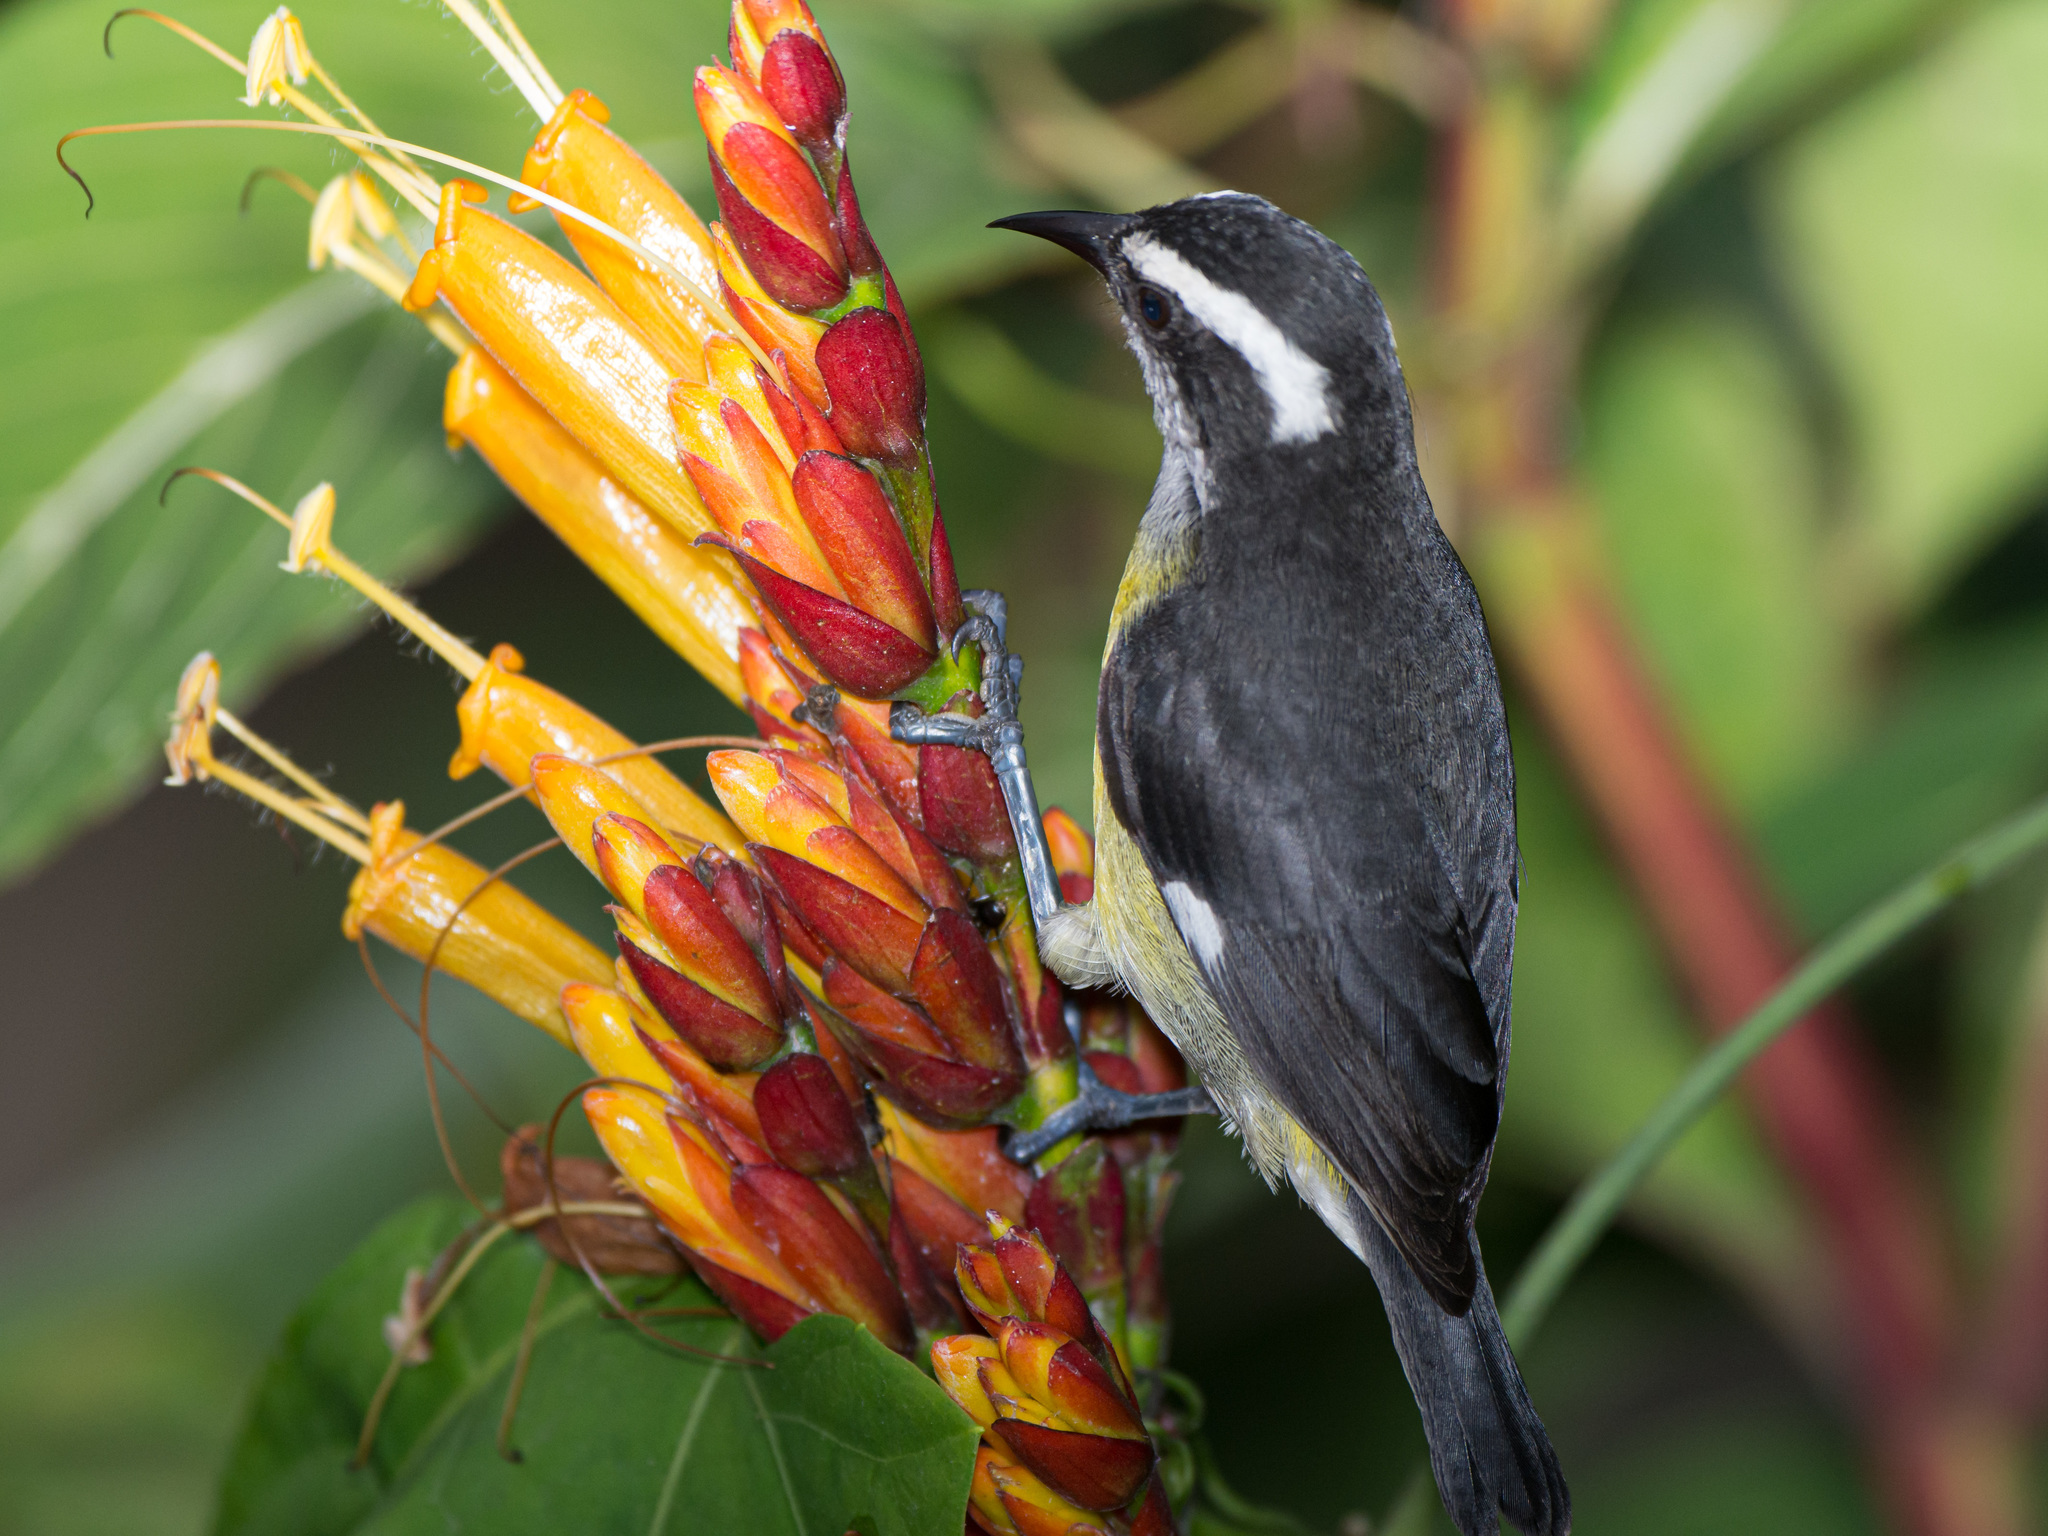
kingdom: Animalia
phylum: Chordata
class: Aves
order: Passeriformes
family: Thraupidae
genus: Coereba
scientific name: Coereba flaveola
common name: Bananaquit
